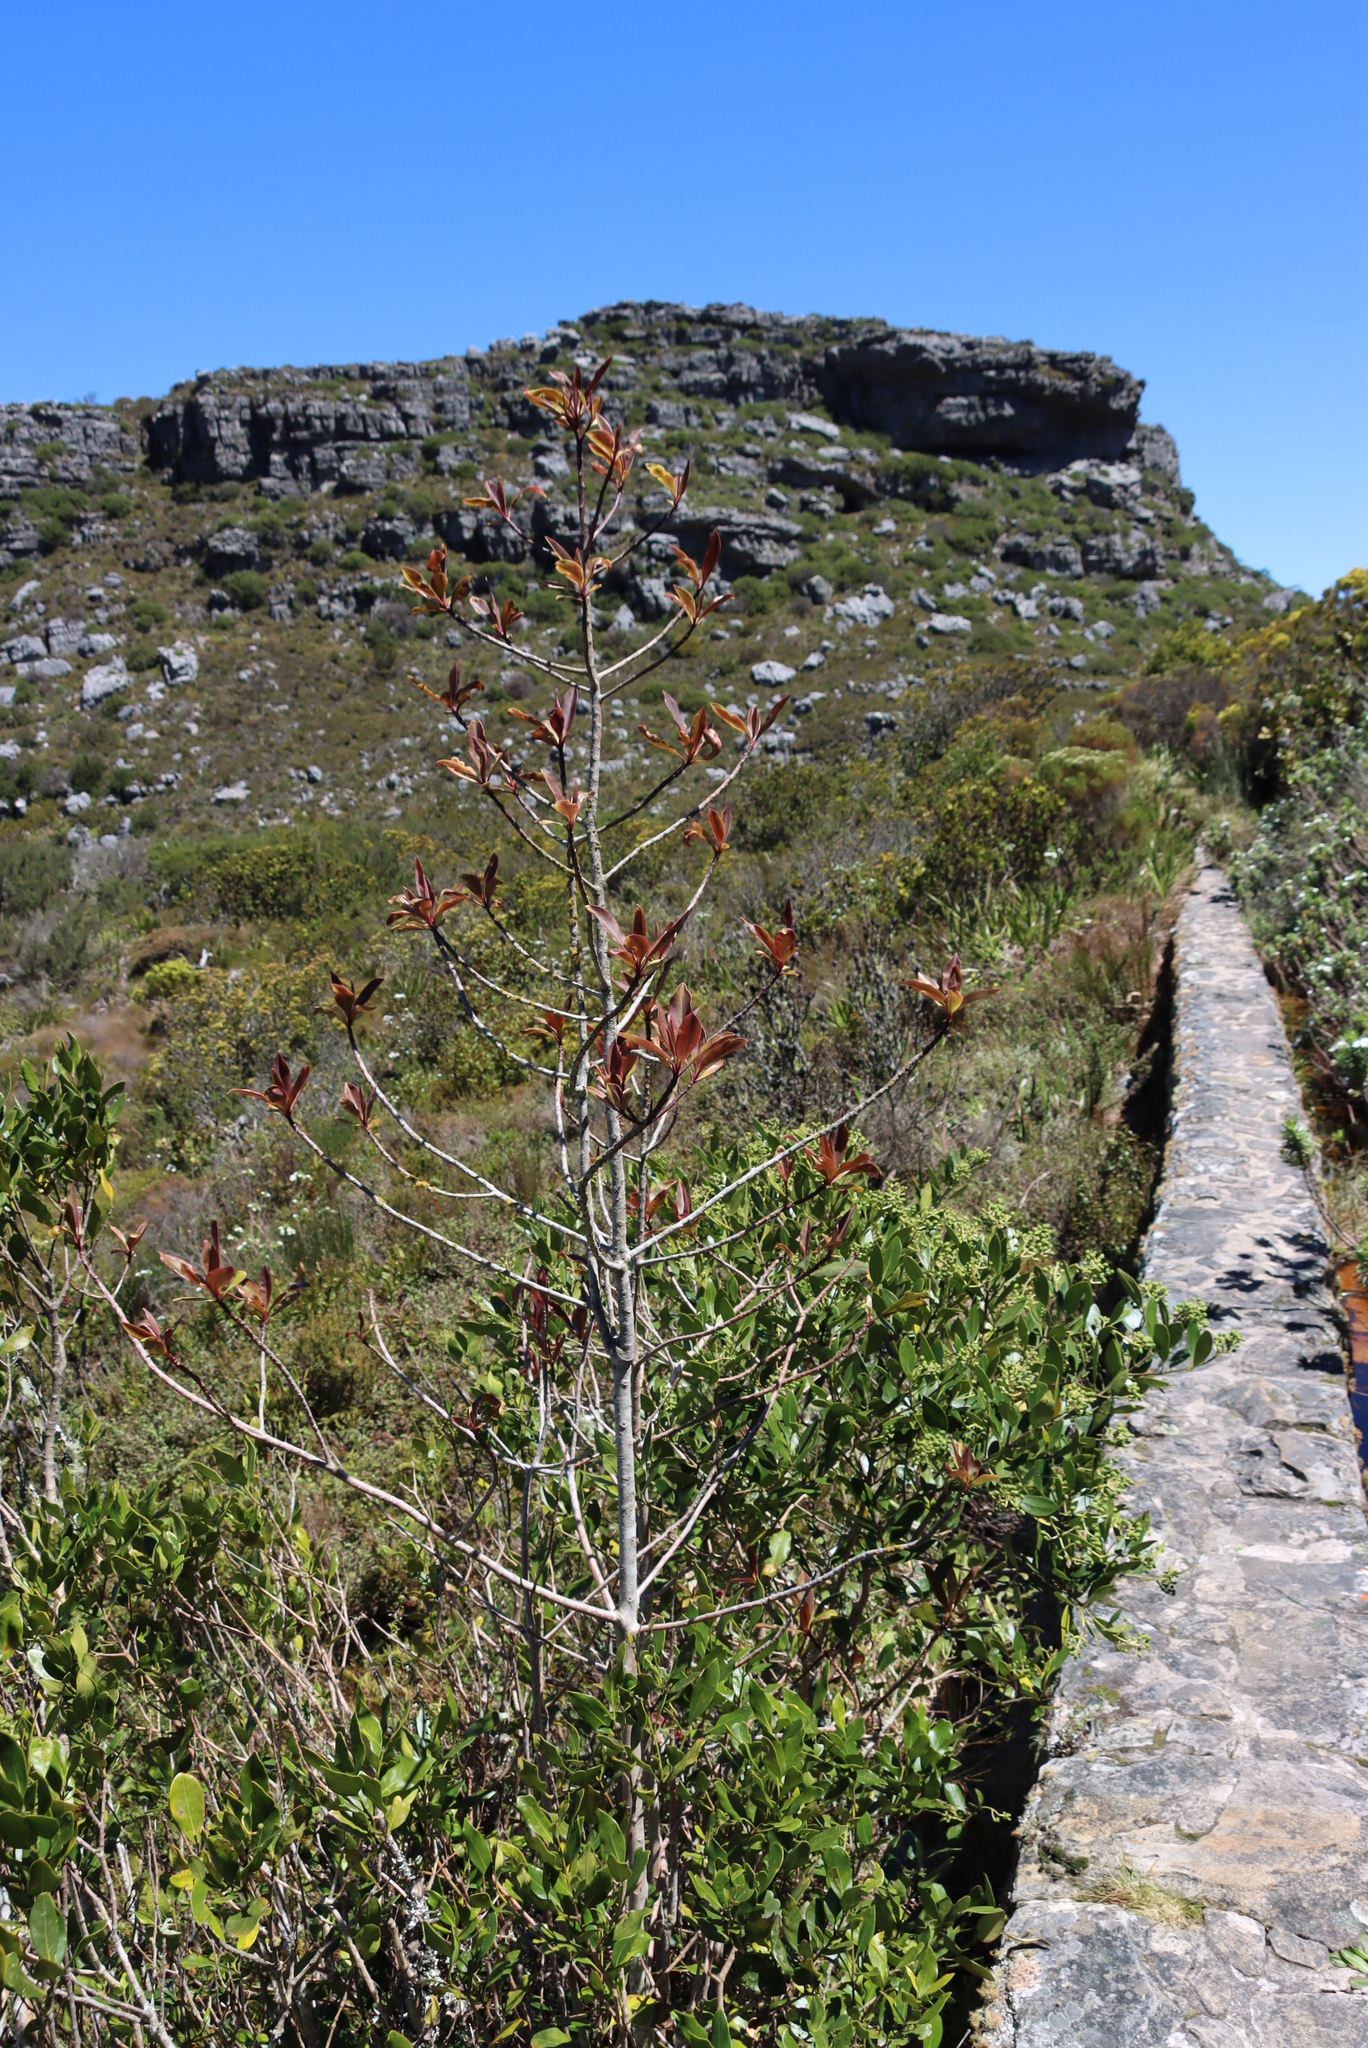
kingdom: Plantae
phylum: Tracheophyta
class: Magnoliopsida
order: Ericales
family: Primulaceae
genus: Myrsine
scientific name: Myrsine melanophloeos
